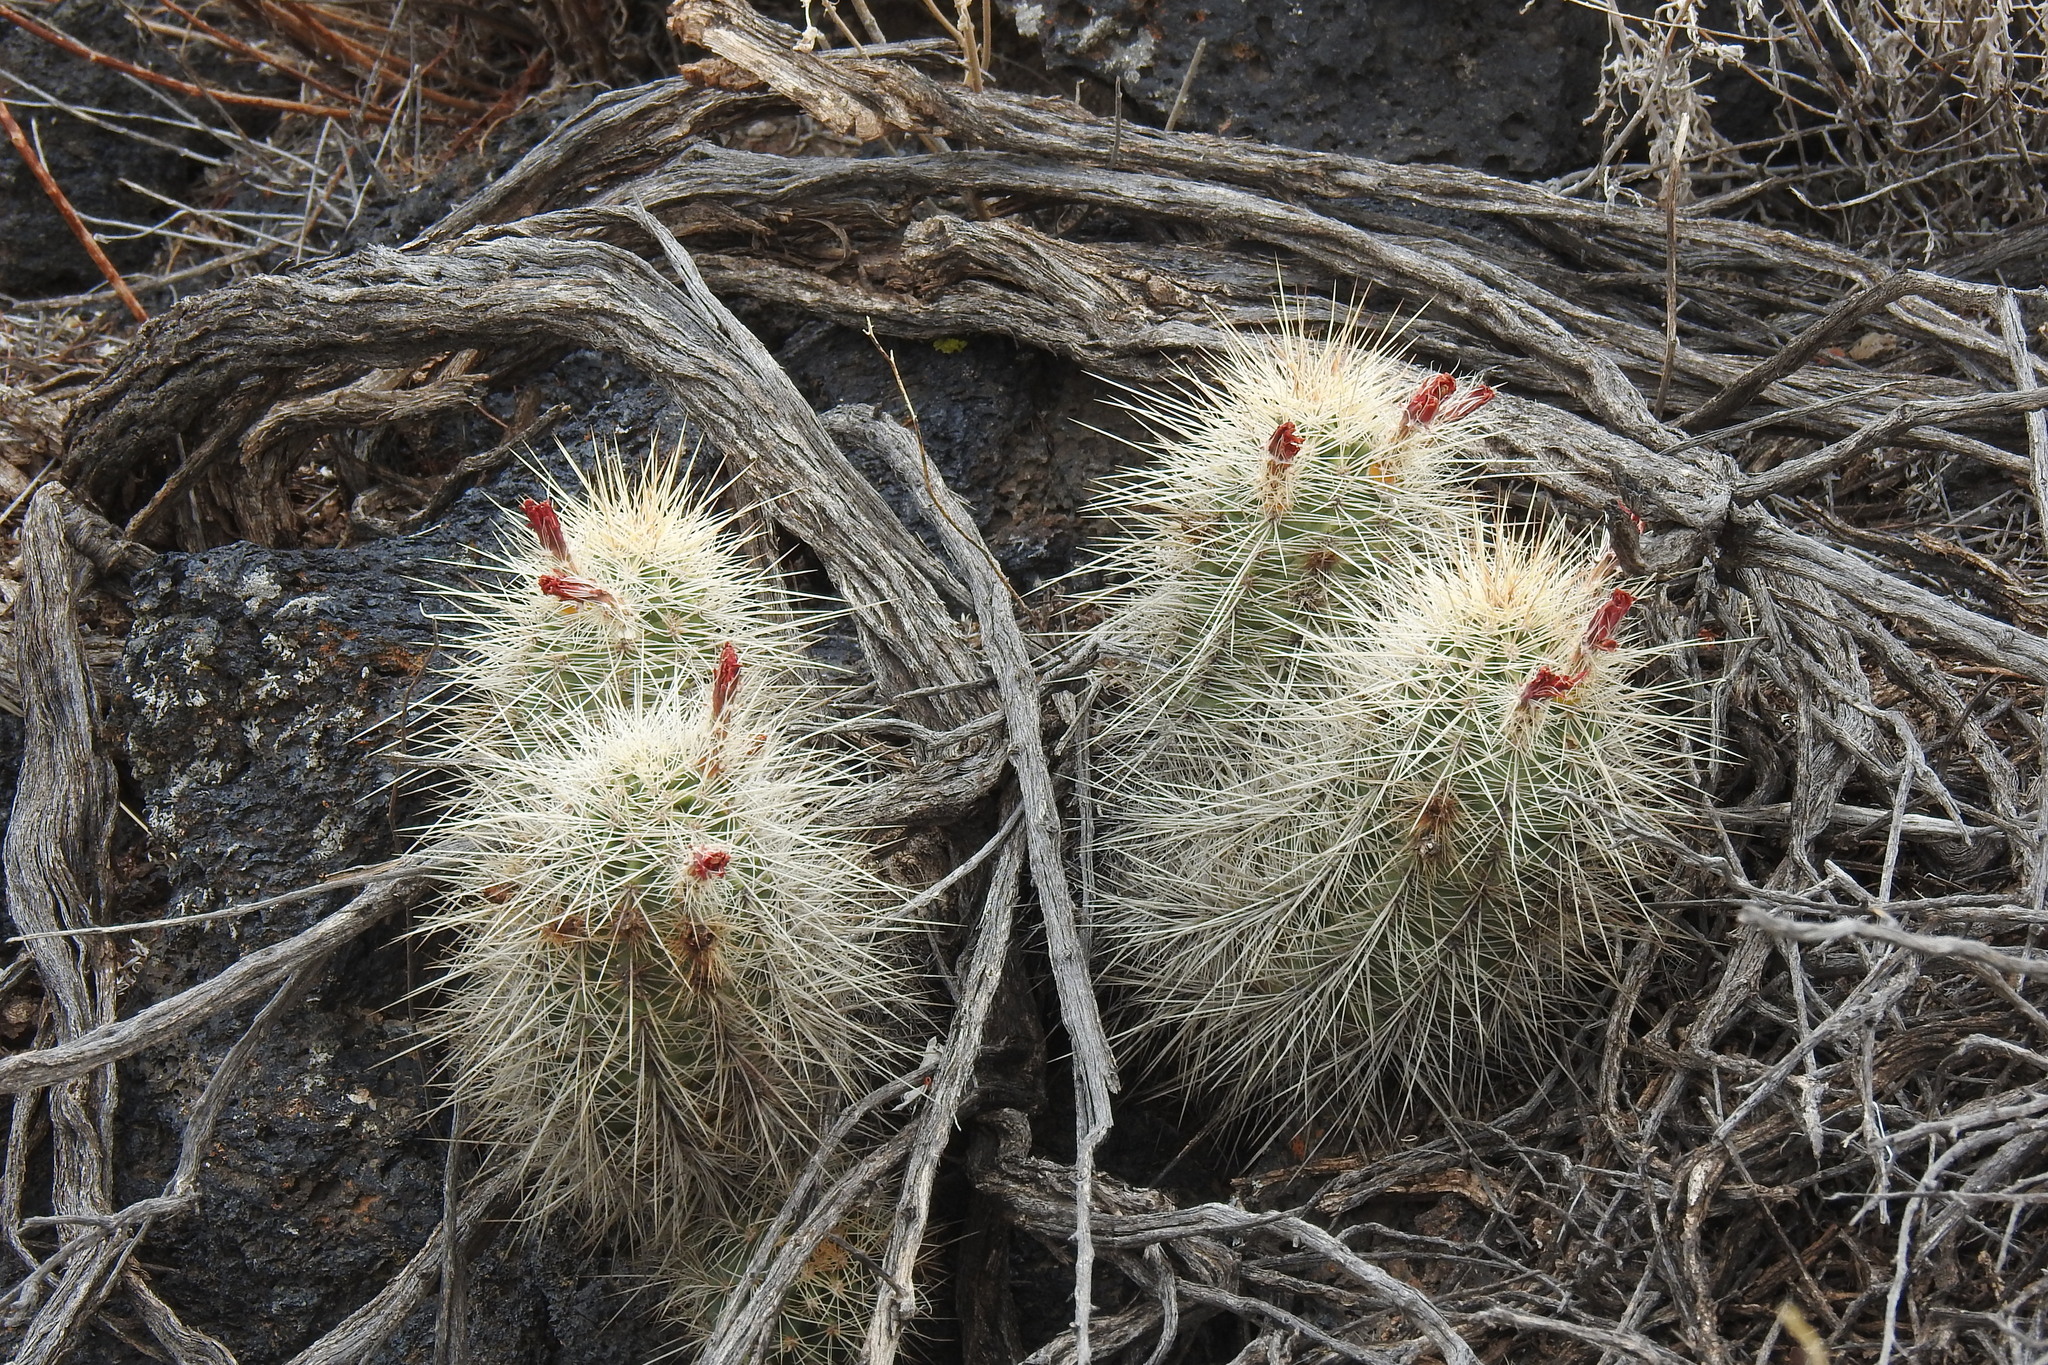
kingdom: Plantae
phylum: Tracheophyta
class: Magnoliopsida
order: Caryophyllales
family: Cactaceae
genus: Echinocereus
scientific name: Echinocereus coccineus
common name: Scarlet hedgehog cactus
